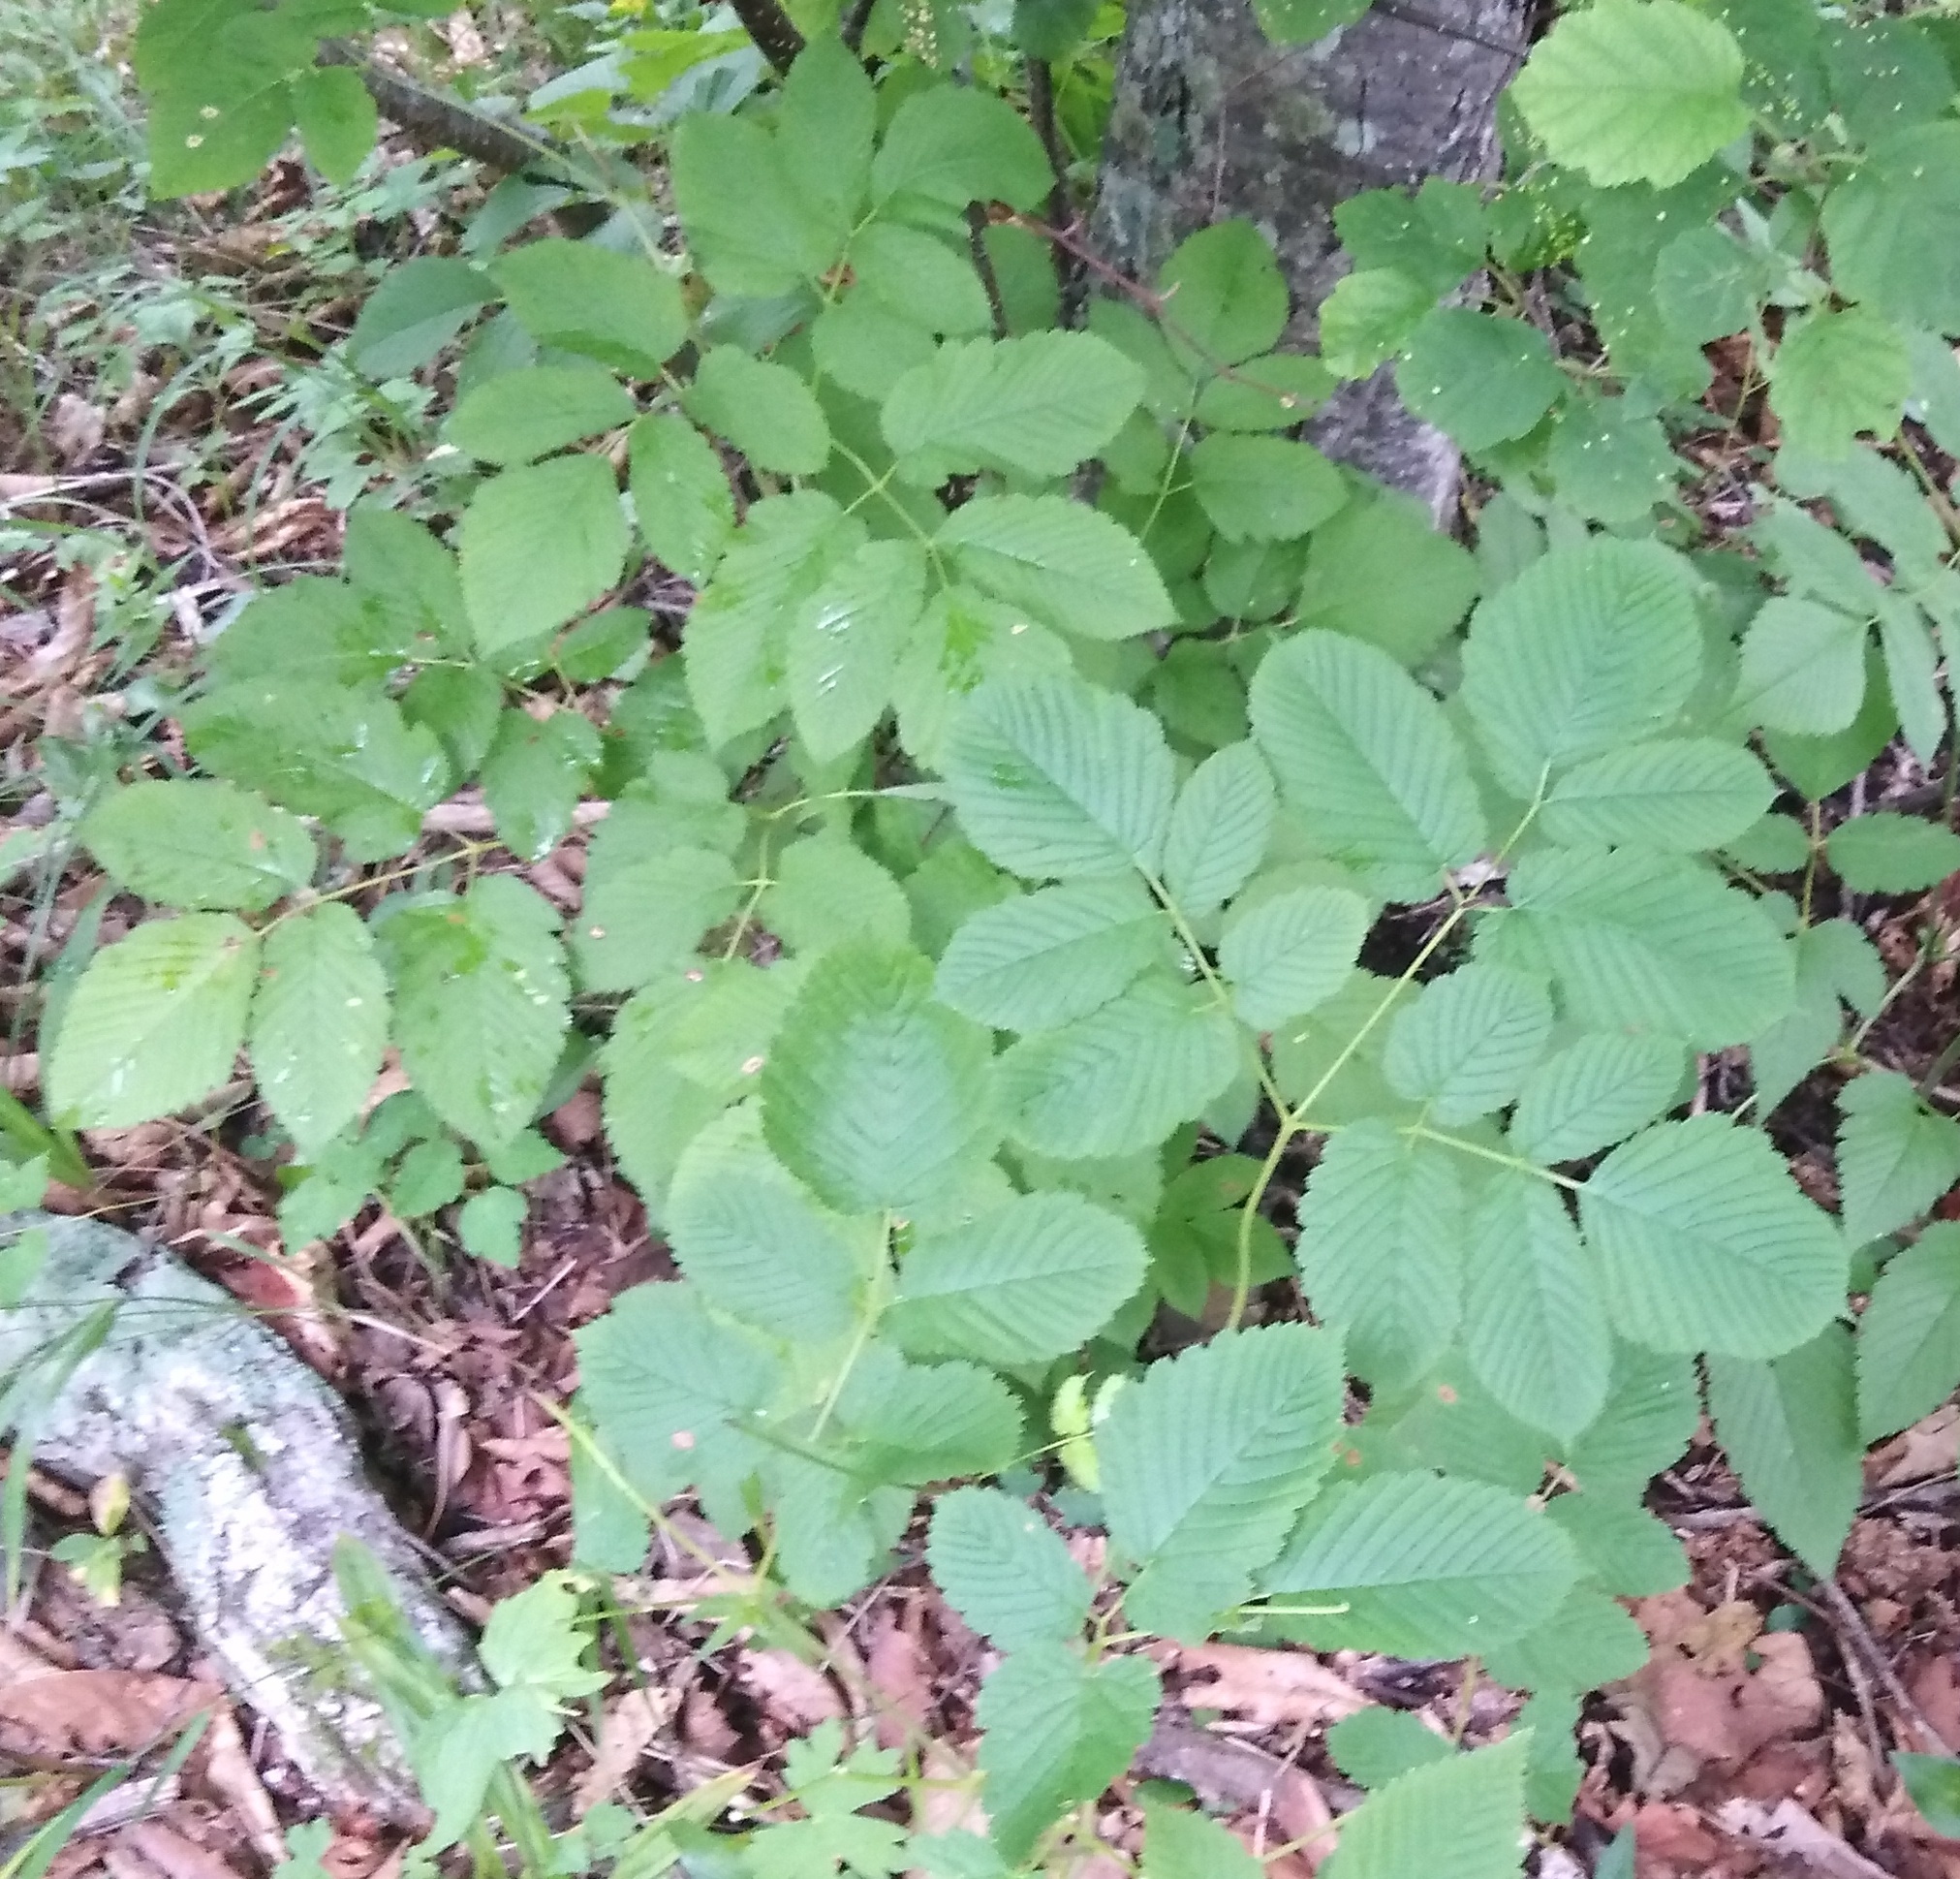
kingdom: Plantae
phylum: Tracheophyta
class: Magnoliopsida
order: Rosales
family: Rosaceae
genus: Aruncus
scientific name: Aruncus dioicus
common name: Buck's-beard
